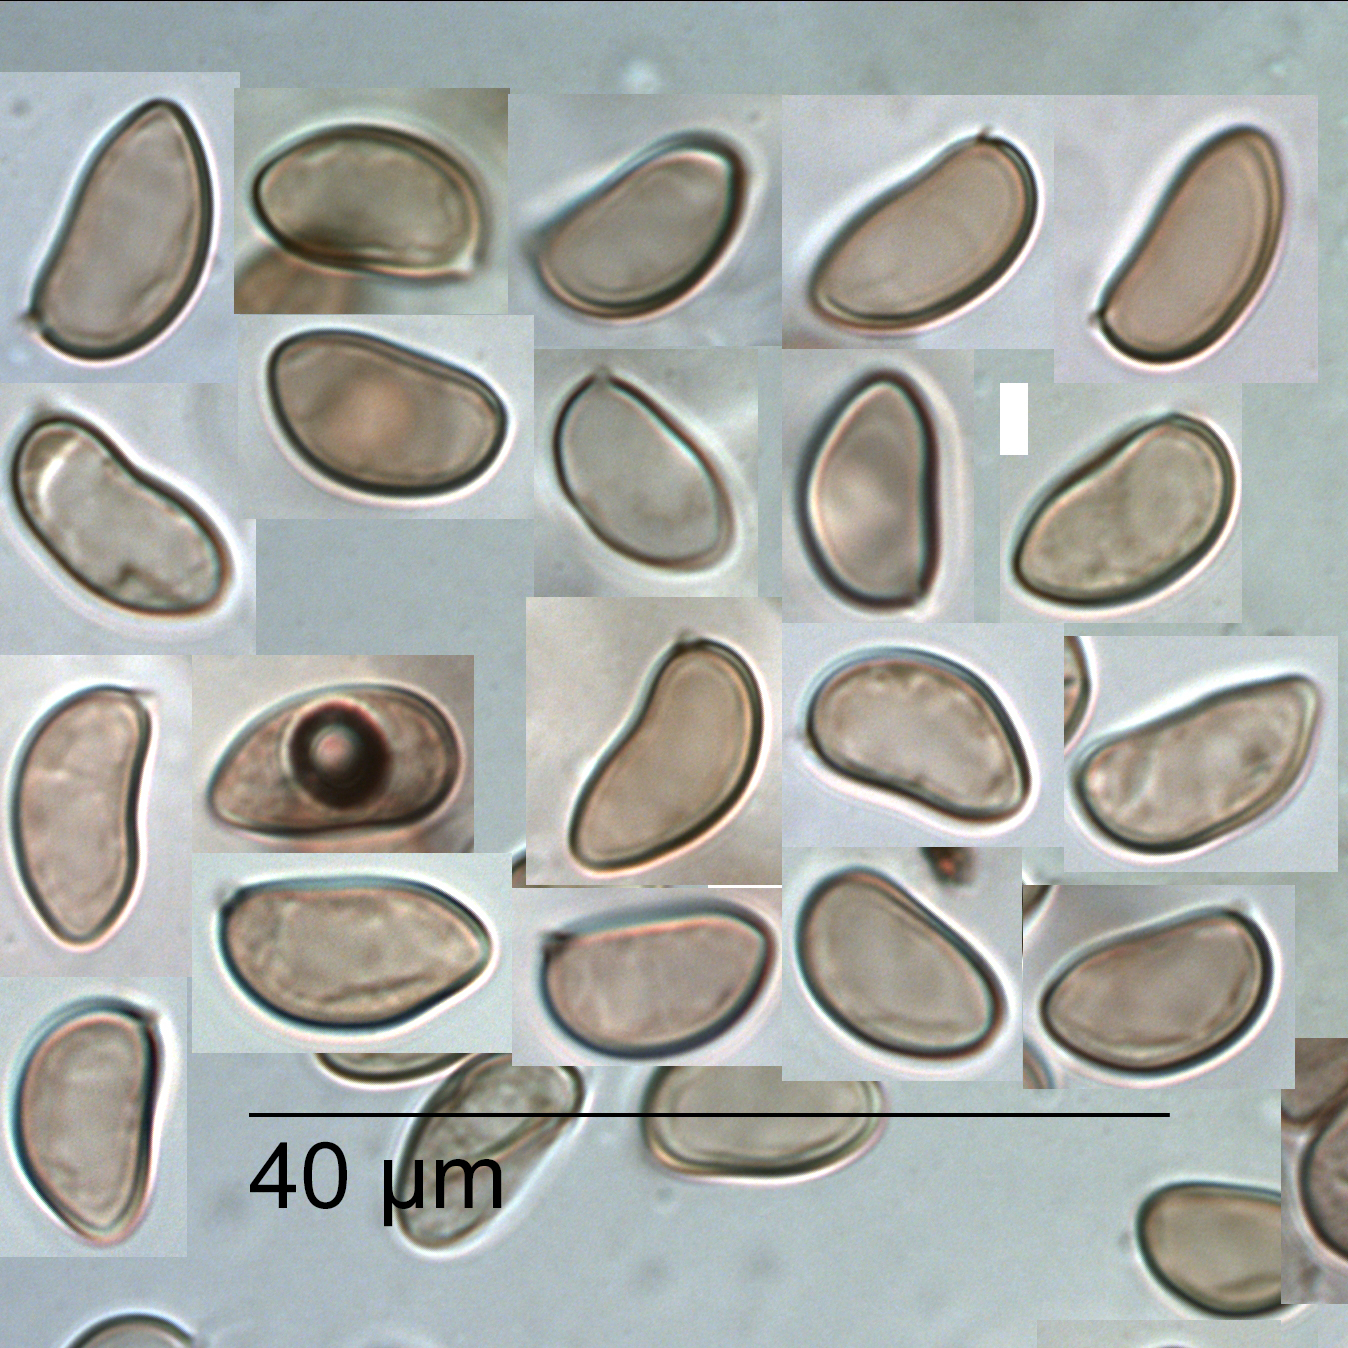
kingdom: Fungi
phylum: Basidiomycota
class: Agaricomycetes
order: Agaricales
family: Inocybaceae
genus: Pseudosperma
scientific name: Pseudosperma renisporum
